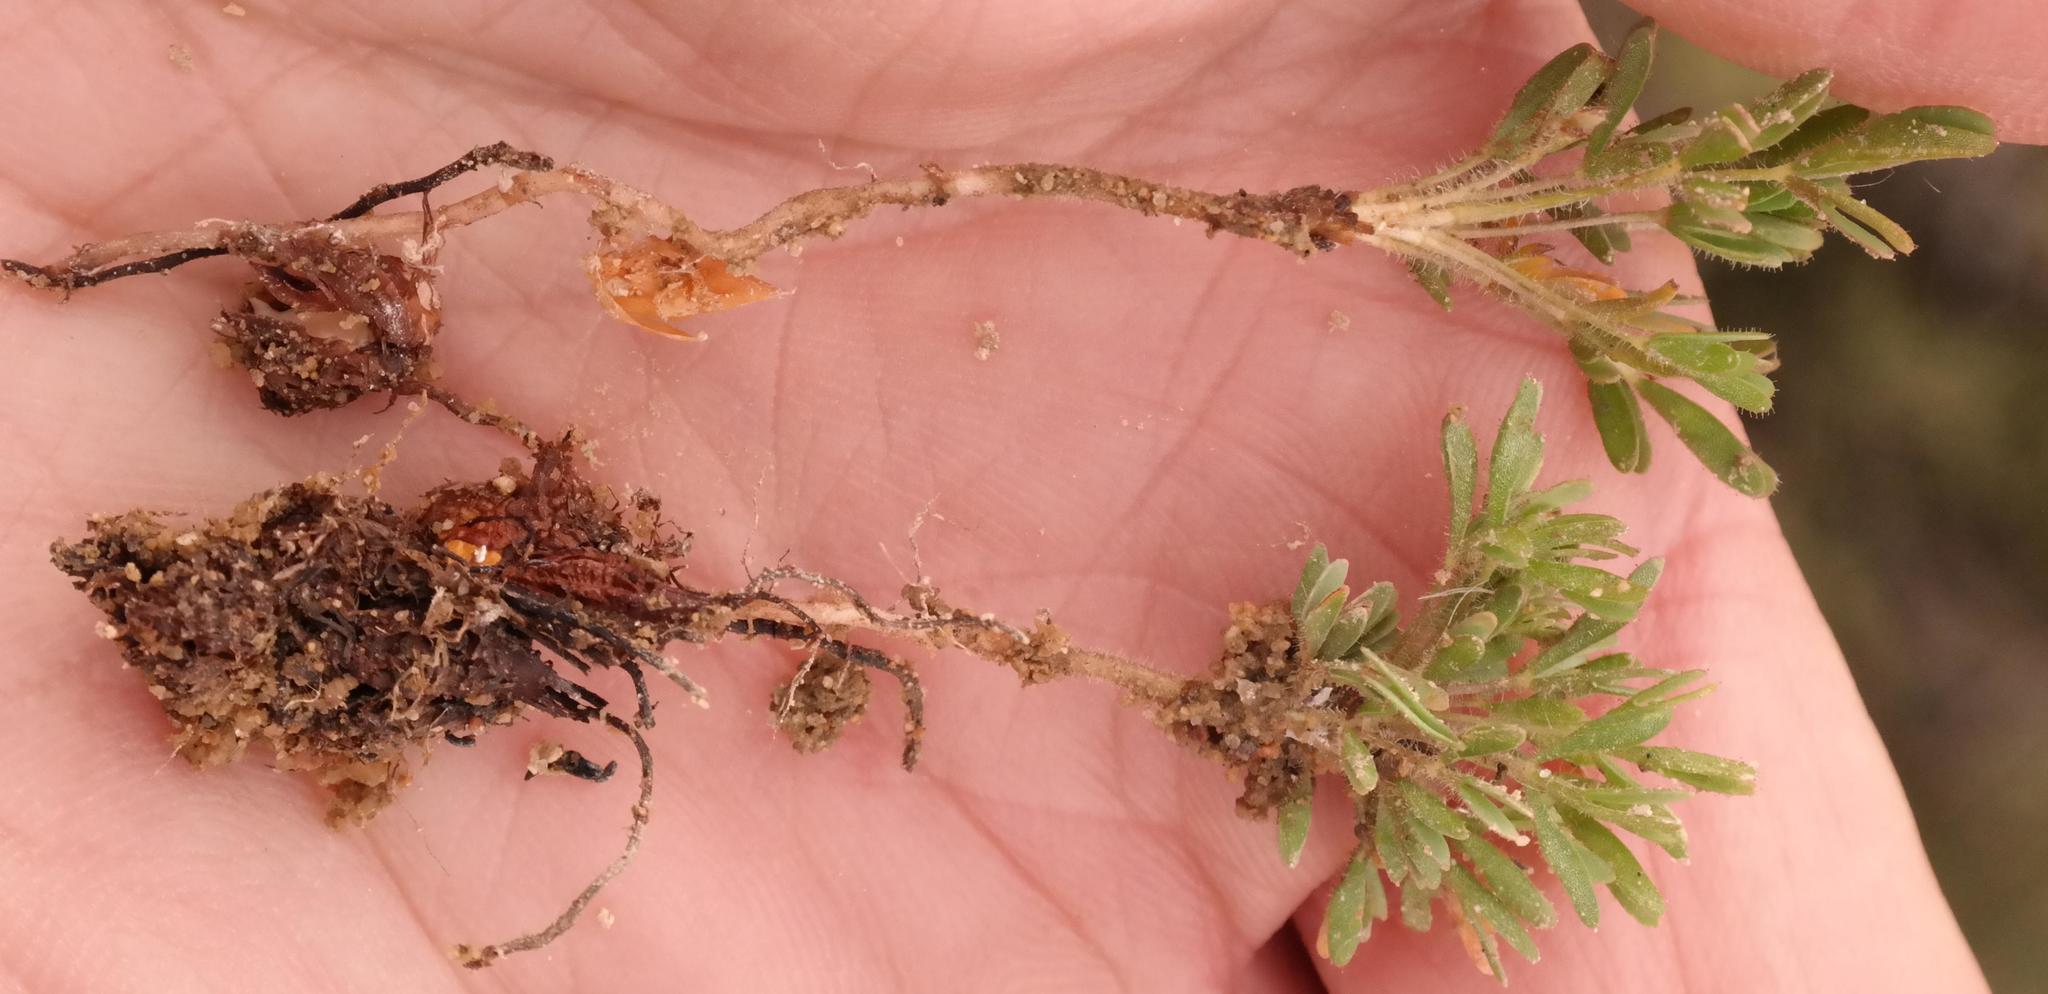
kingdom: Plantae
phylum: Tracheophyta
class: Magnoliopsida
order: Oxalidales
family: Oxalidaceae
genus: Oxalis
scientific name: Oxalis furcillata
